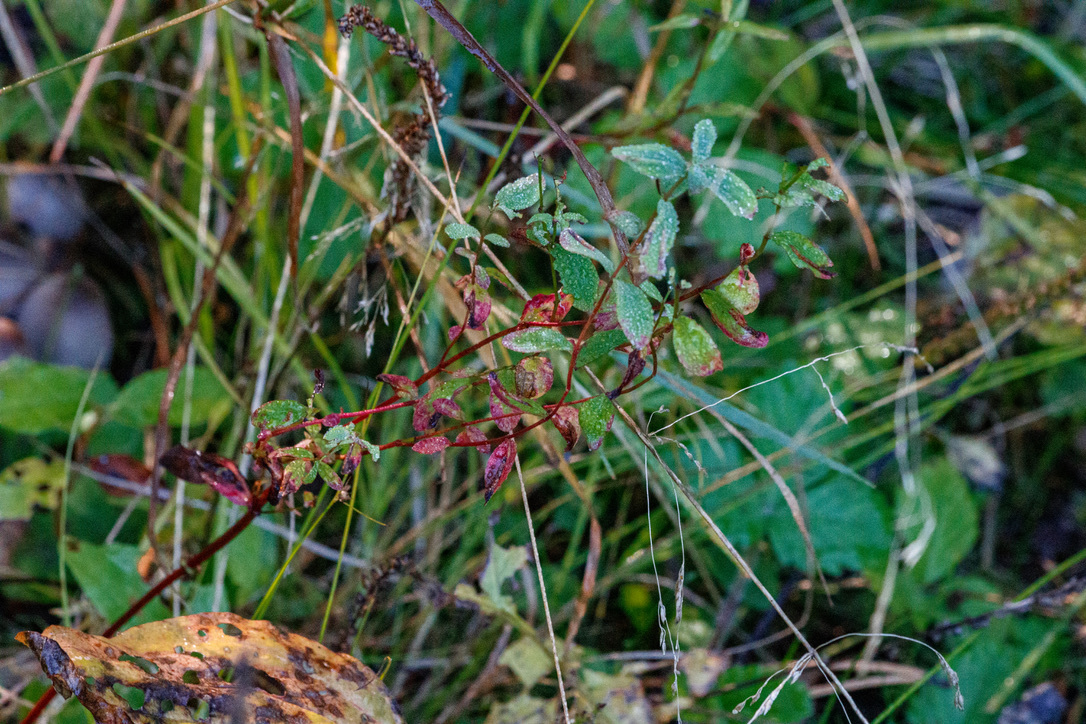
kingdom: Plantae
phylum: Tracheophyta
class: Magnoliopsida
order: Ericales
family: Ericaceae
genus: Vaccinium
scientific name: Vaccinium uliginosum
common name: Bog bilberry
